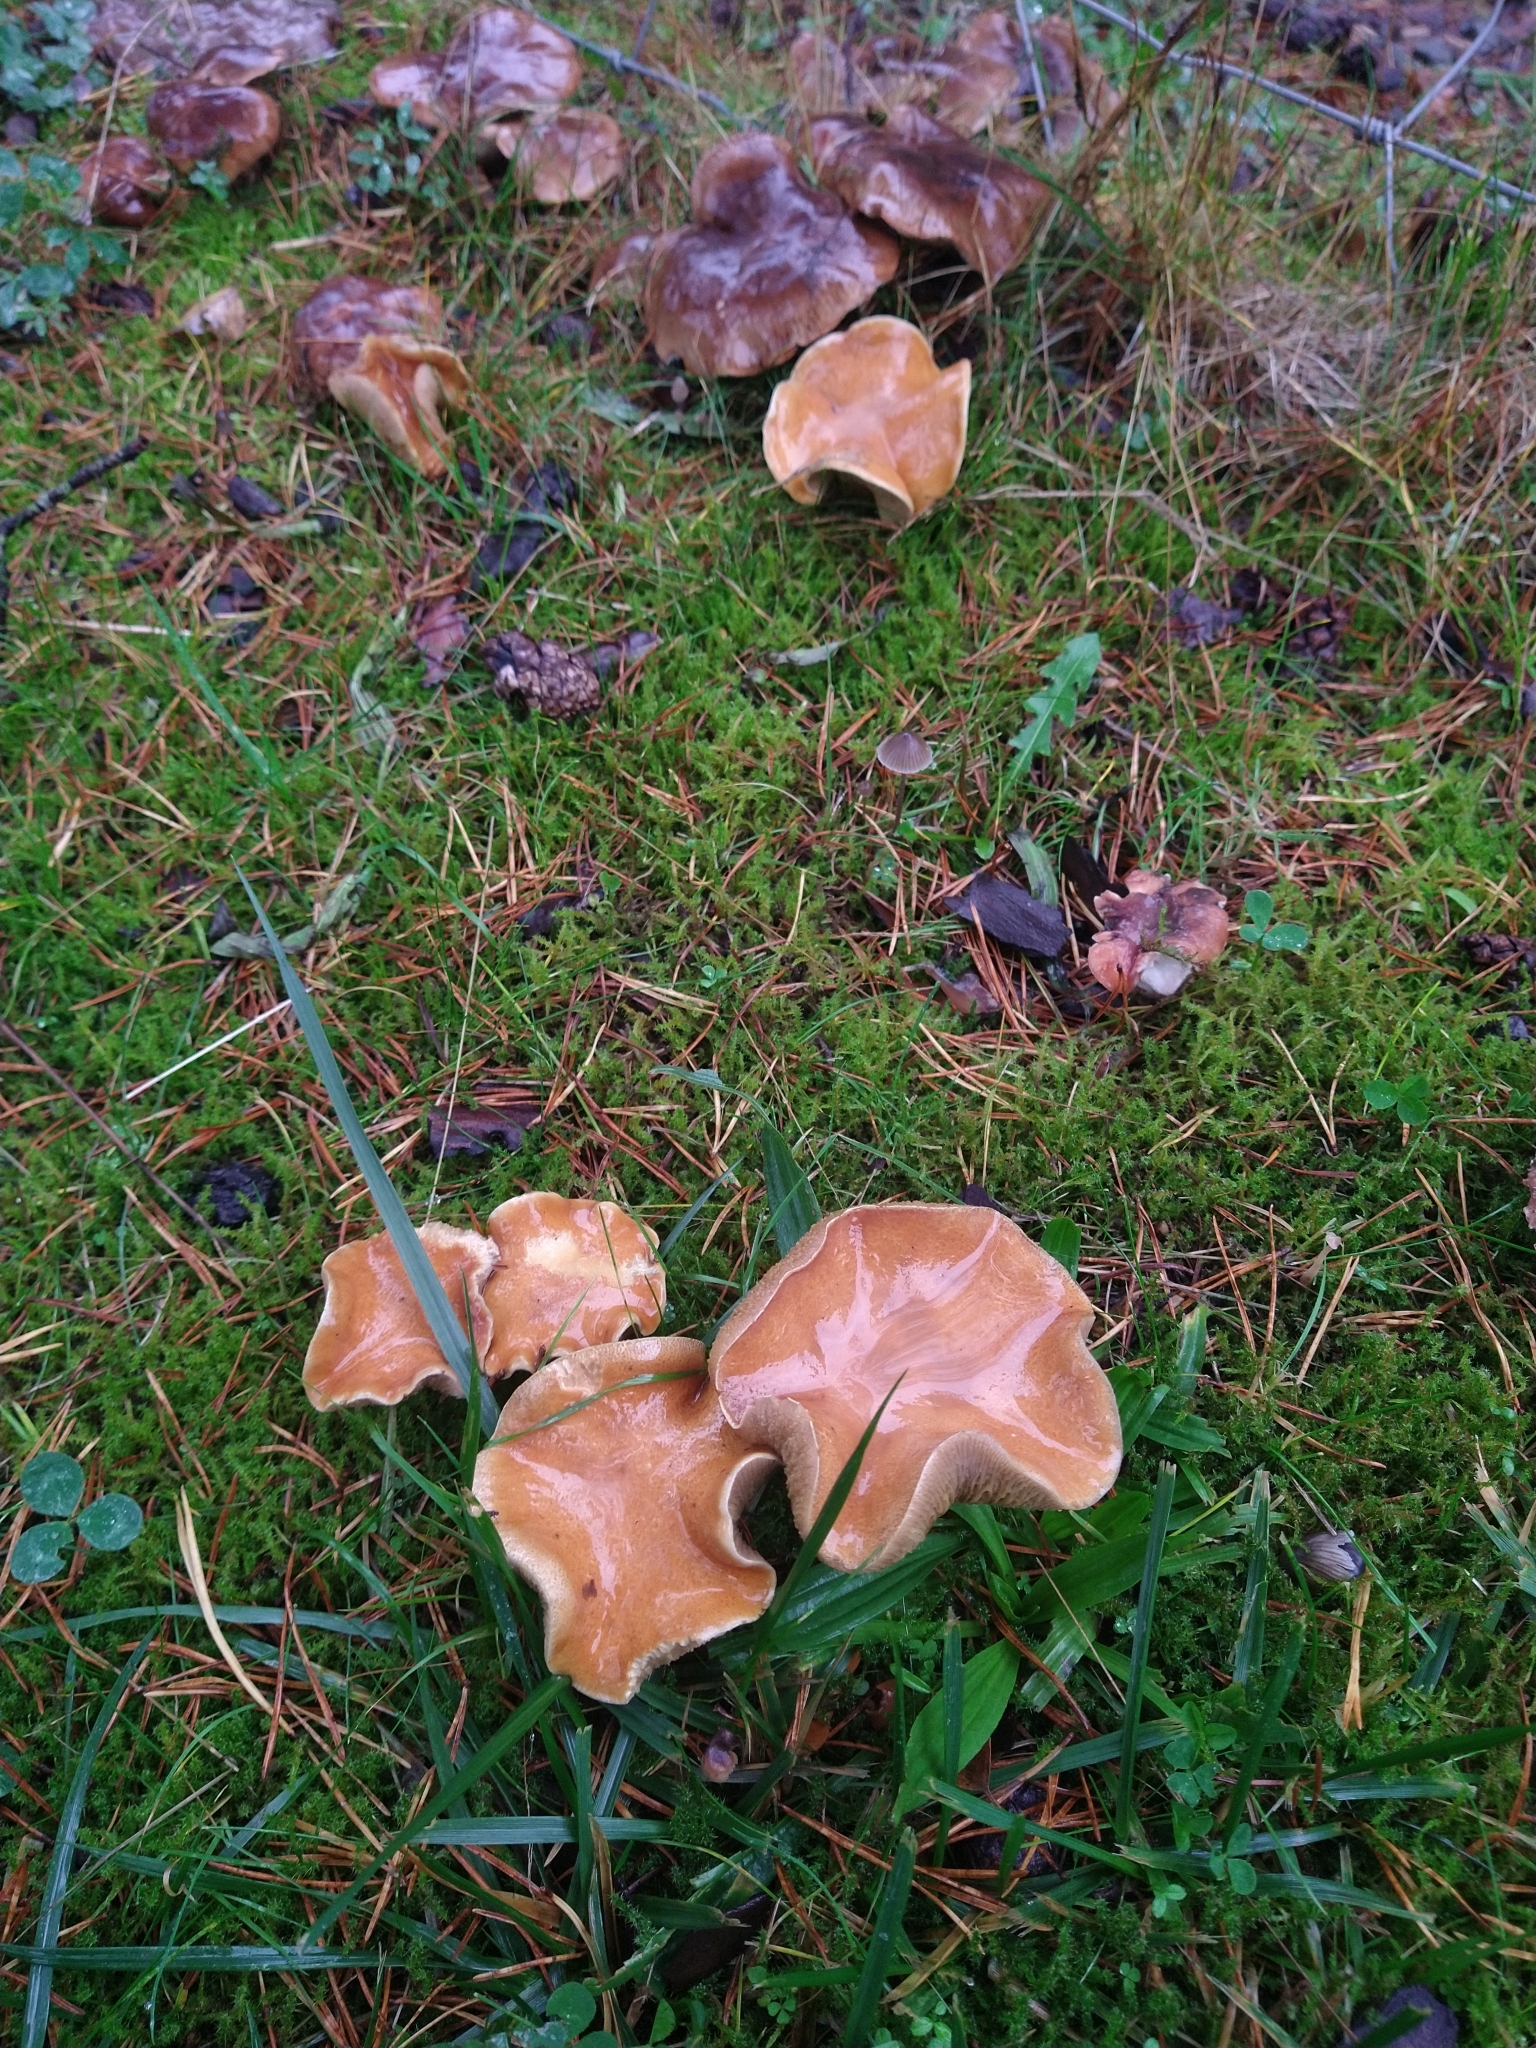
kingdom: Fungi
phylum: Basidiomycota
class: Agaricomycetes
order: Boletales
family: Suillaceae
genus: Suillus
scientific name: Suillus bovinus
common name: Bovine bolete
